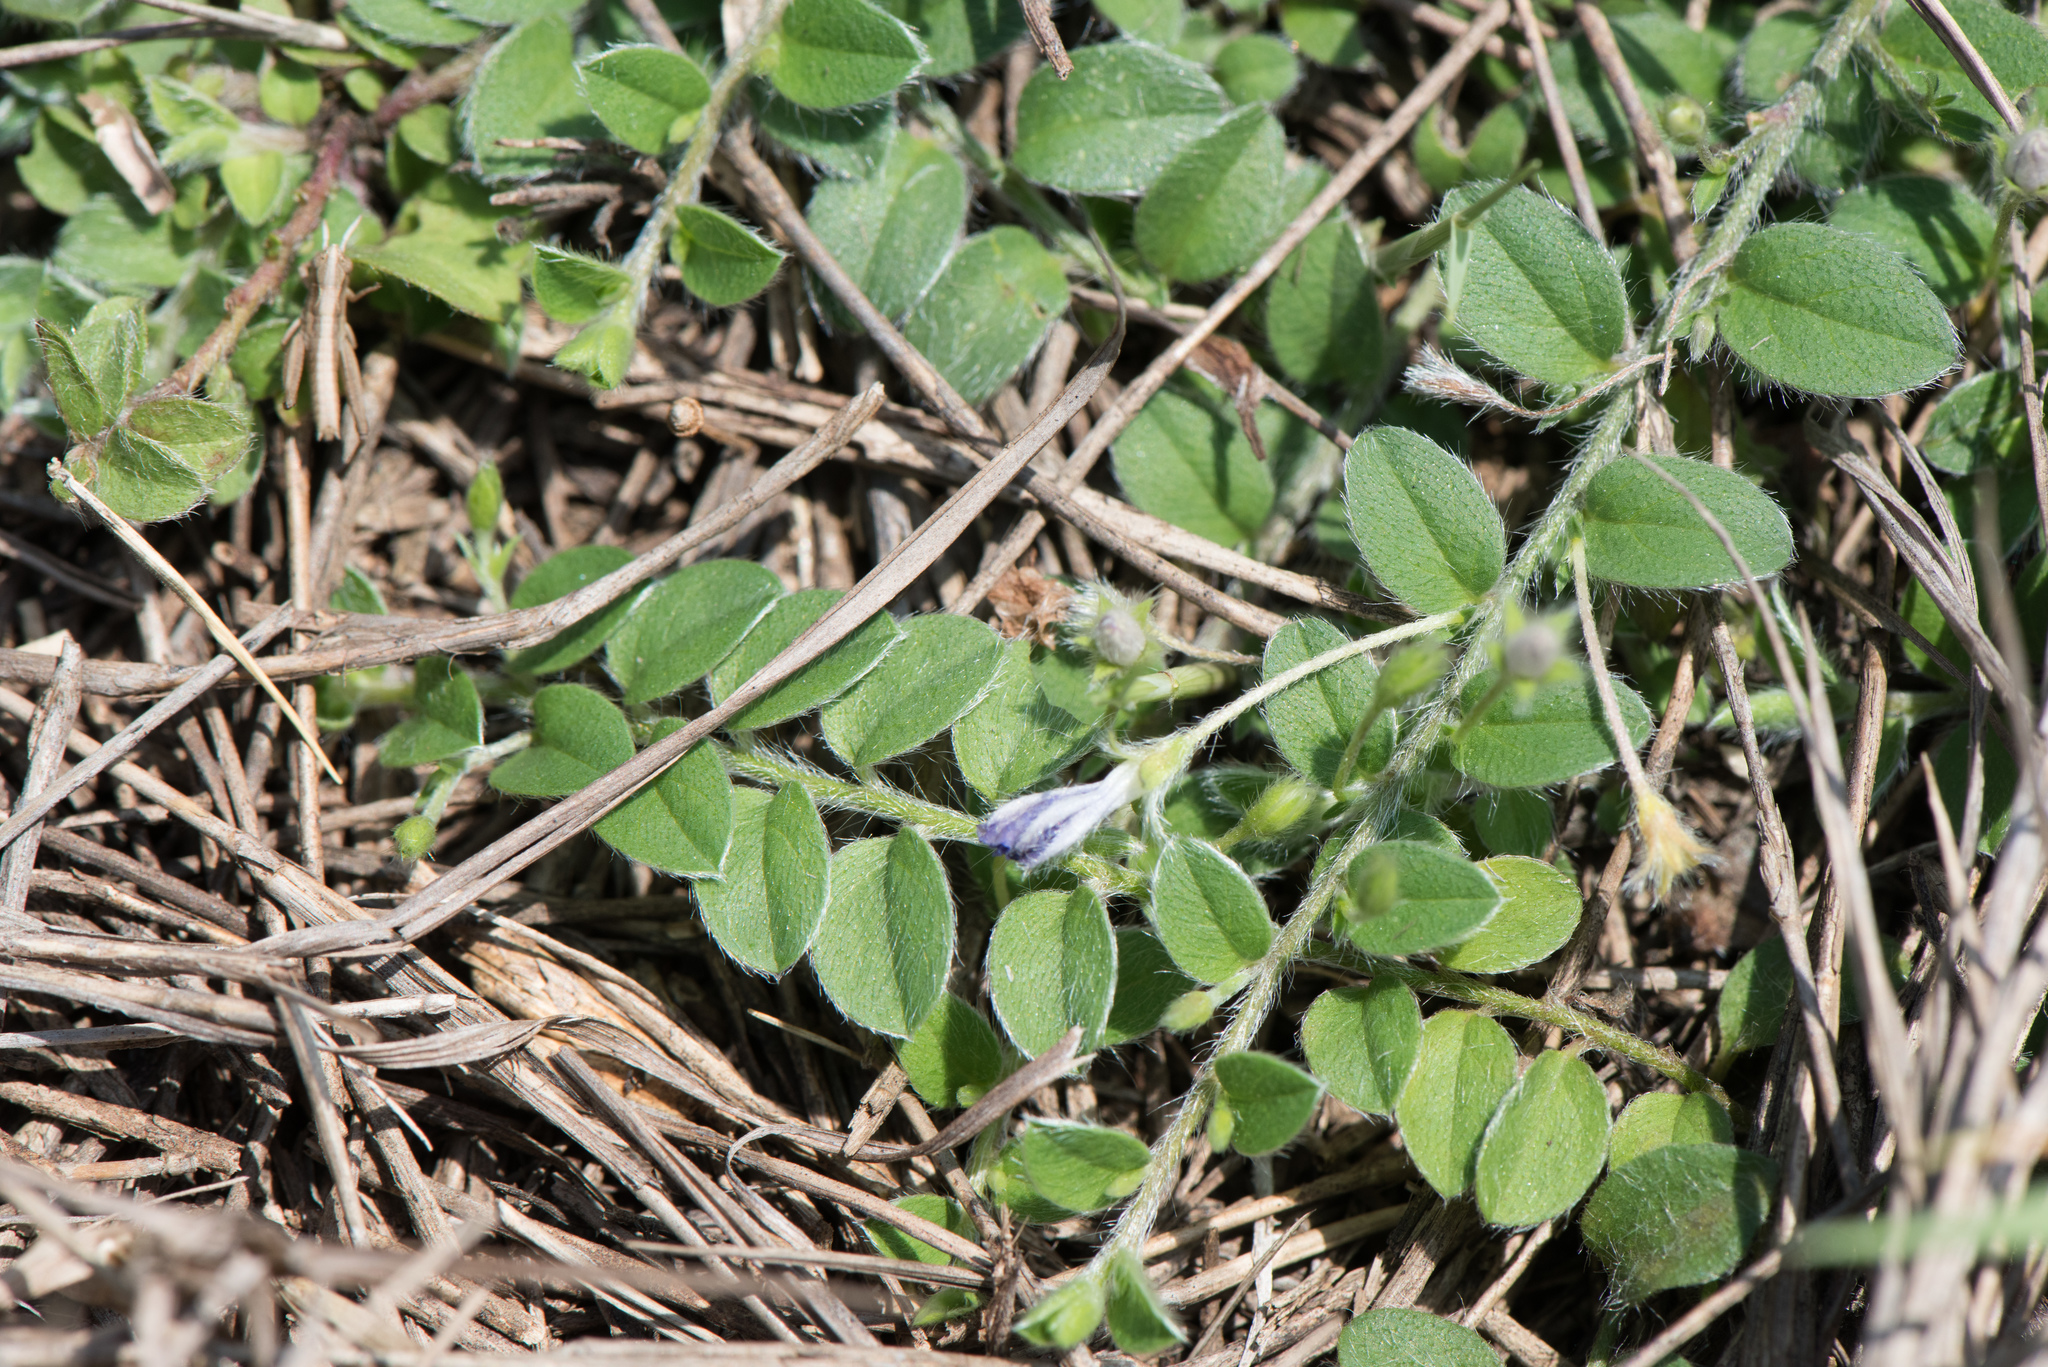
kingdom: Plantae
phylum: Tracheophyta
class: Magnoliopsida
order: Solanales
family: Convolvulaceae
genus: Evolvulus
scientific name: Evolvulus alsinoides
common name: Slender dwarf morning-glory
